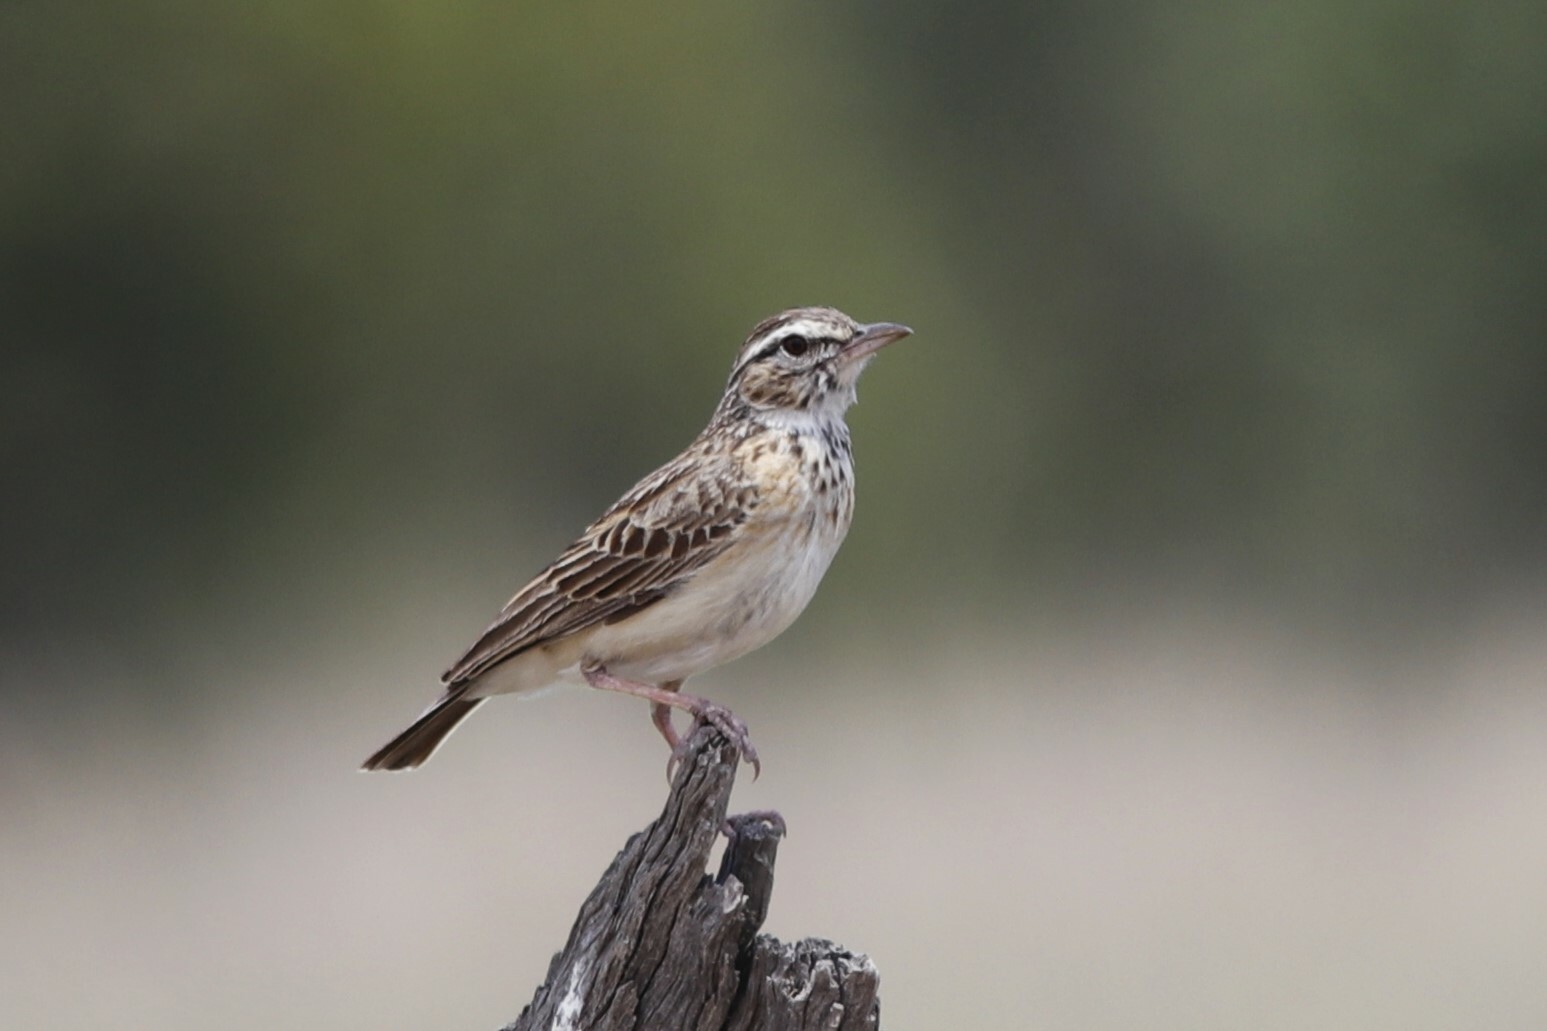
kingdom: Animalia
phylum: Chordata
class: Aves
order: Passeriformes
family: Alaudidae
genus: Calendulauda
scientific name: Calendulauda sabota
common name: Sabota lark
